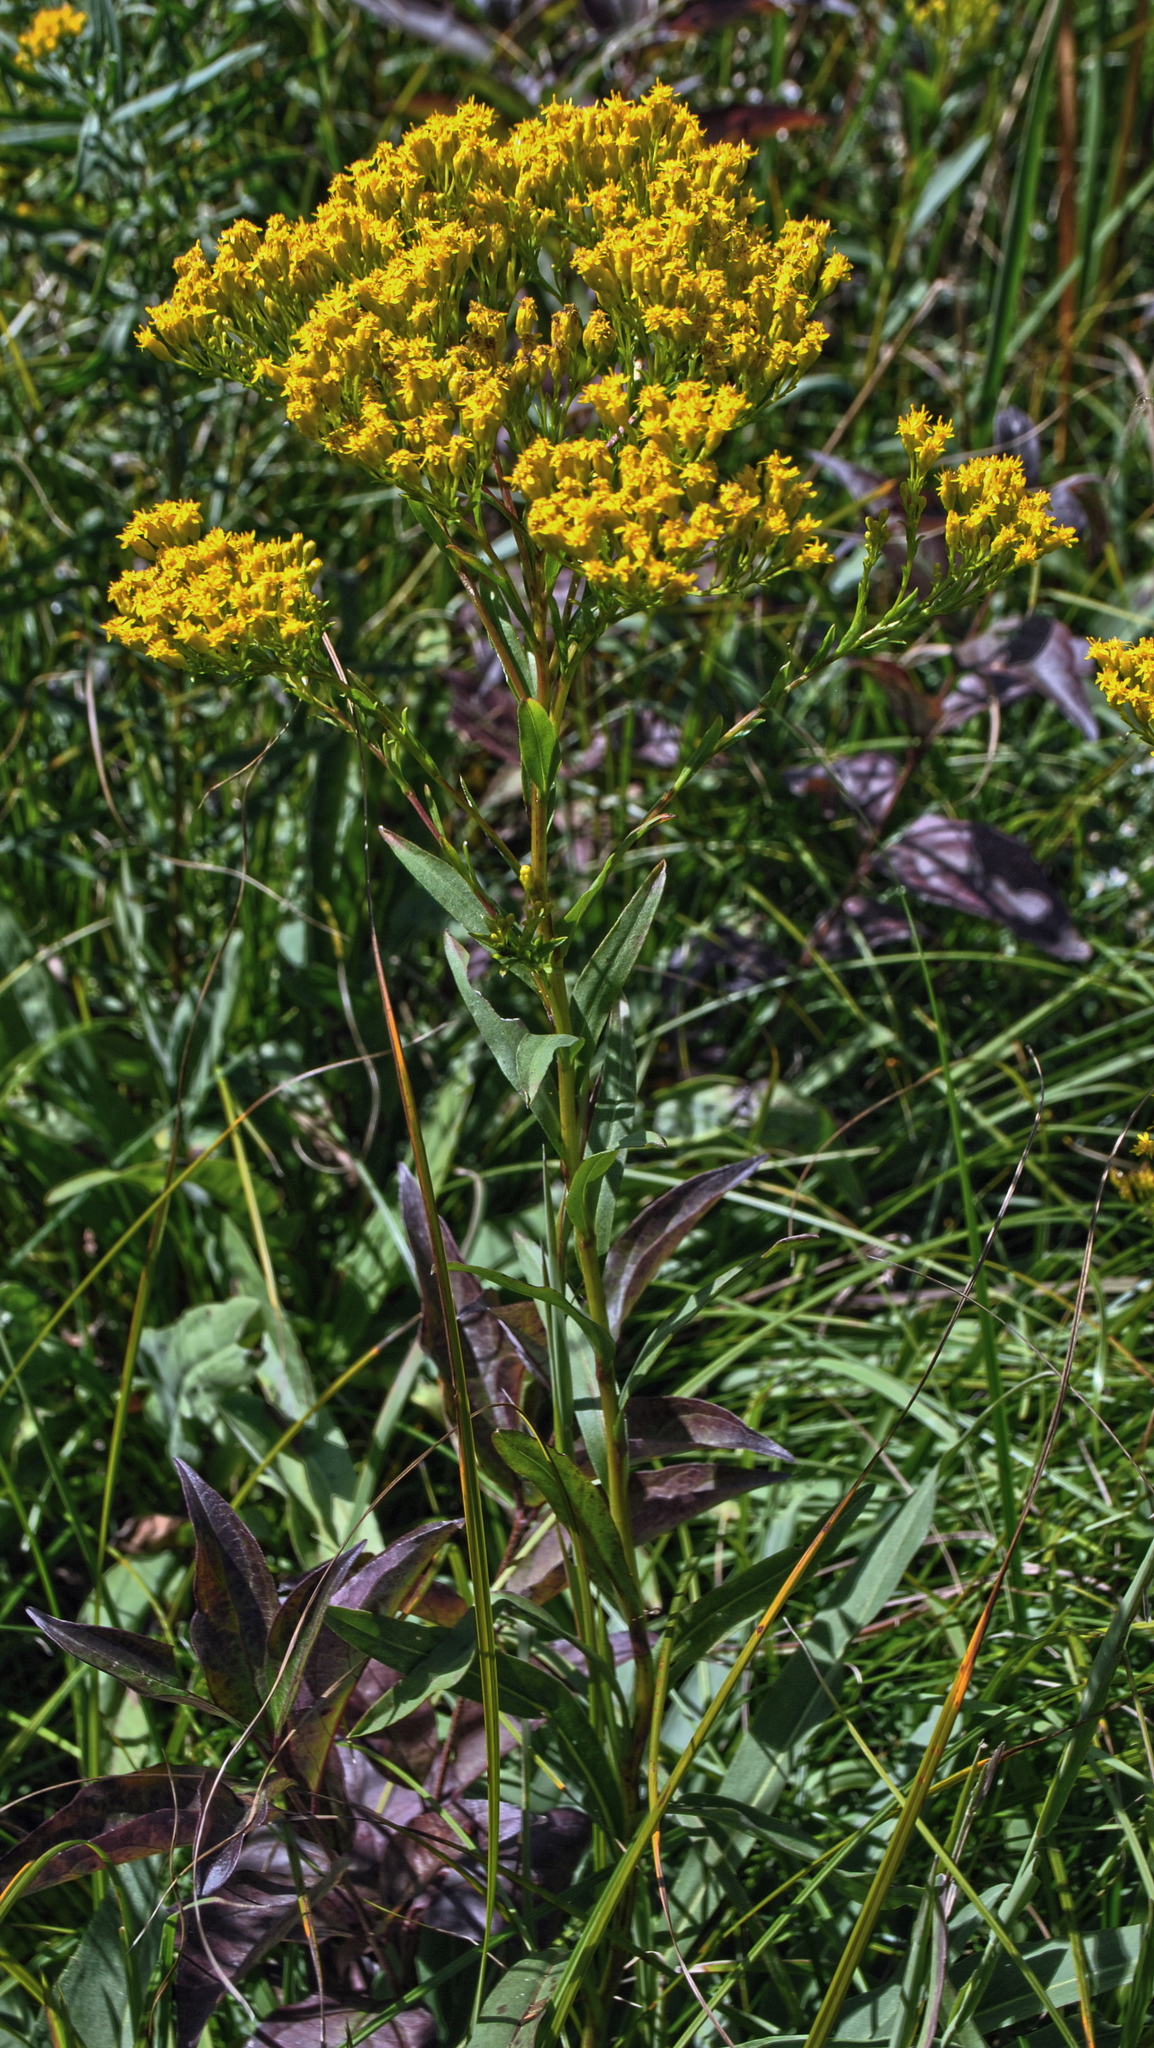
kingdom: Plantae
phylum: Tracheophyta
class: Magnoliopsida
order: Asterales
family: Asteraceae
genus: Solidago
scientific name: Solidago ohioensis
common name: Ohio goldenrod
